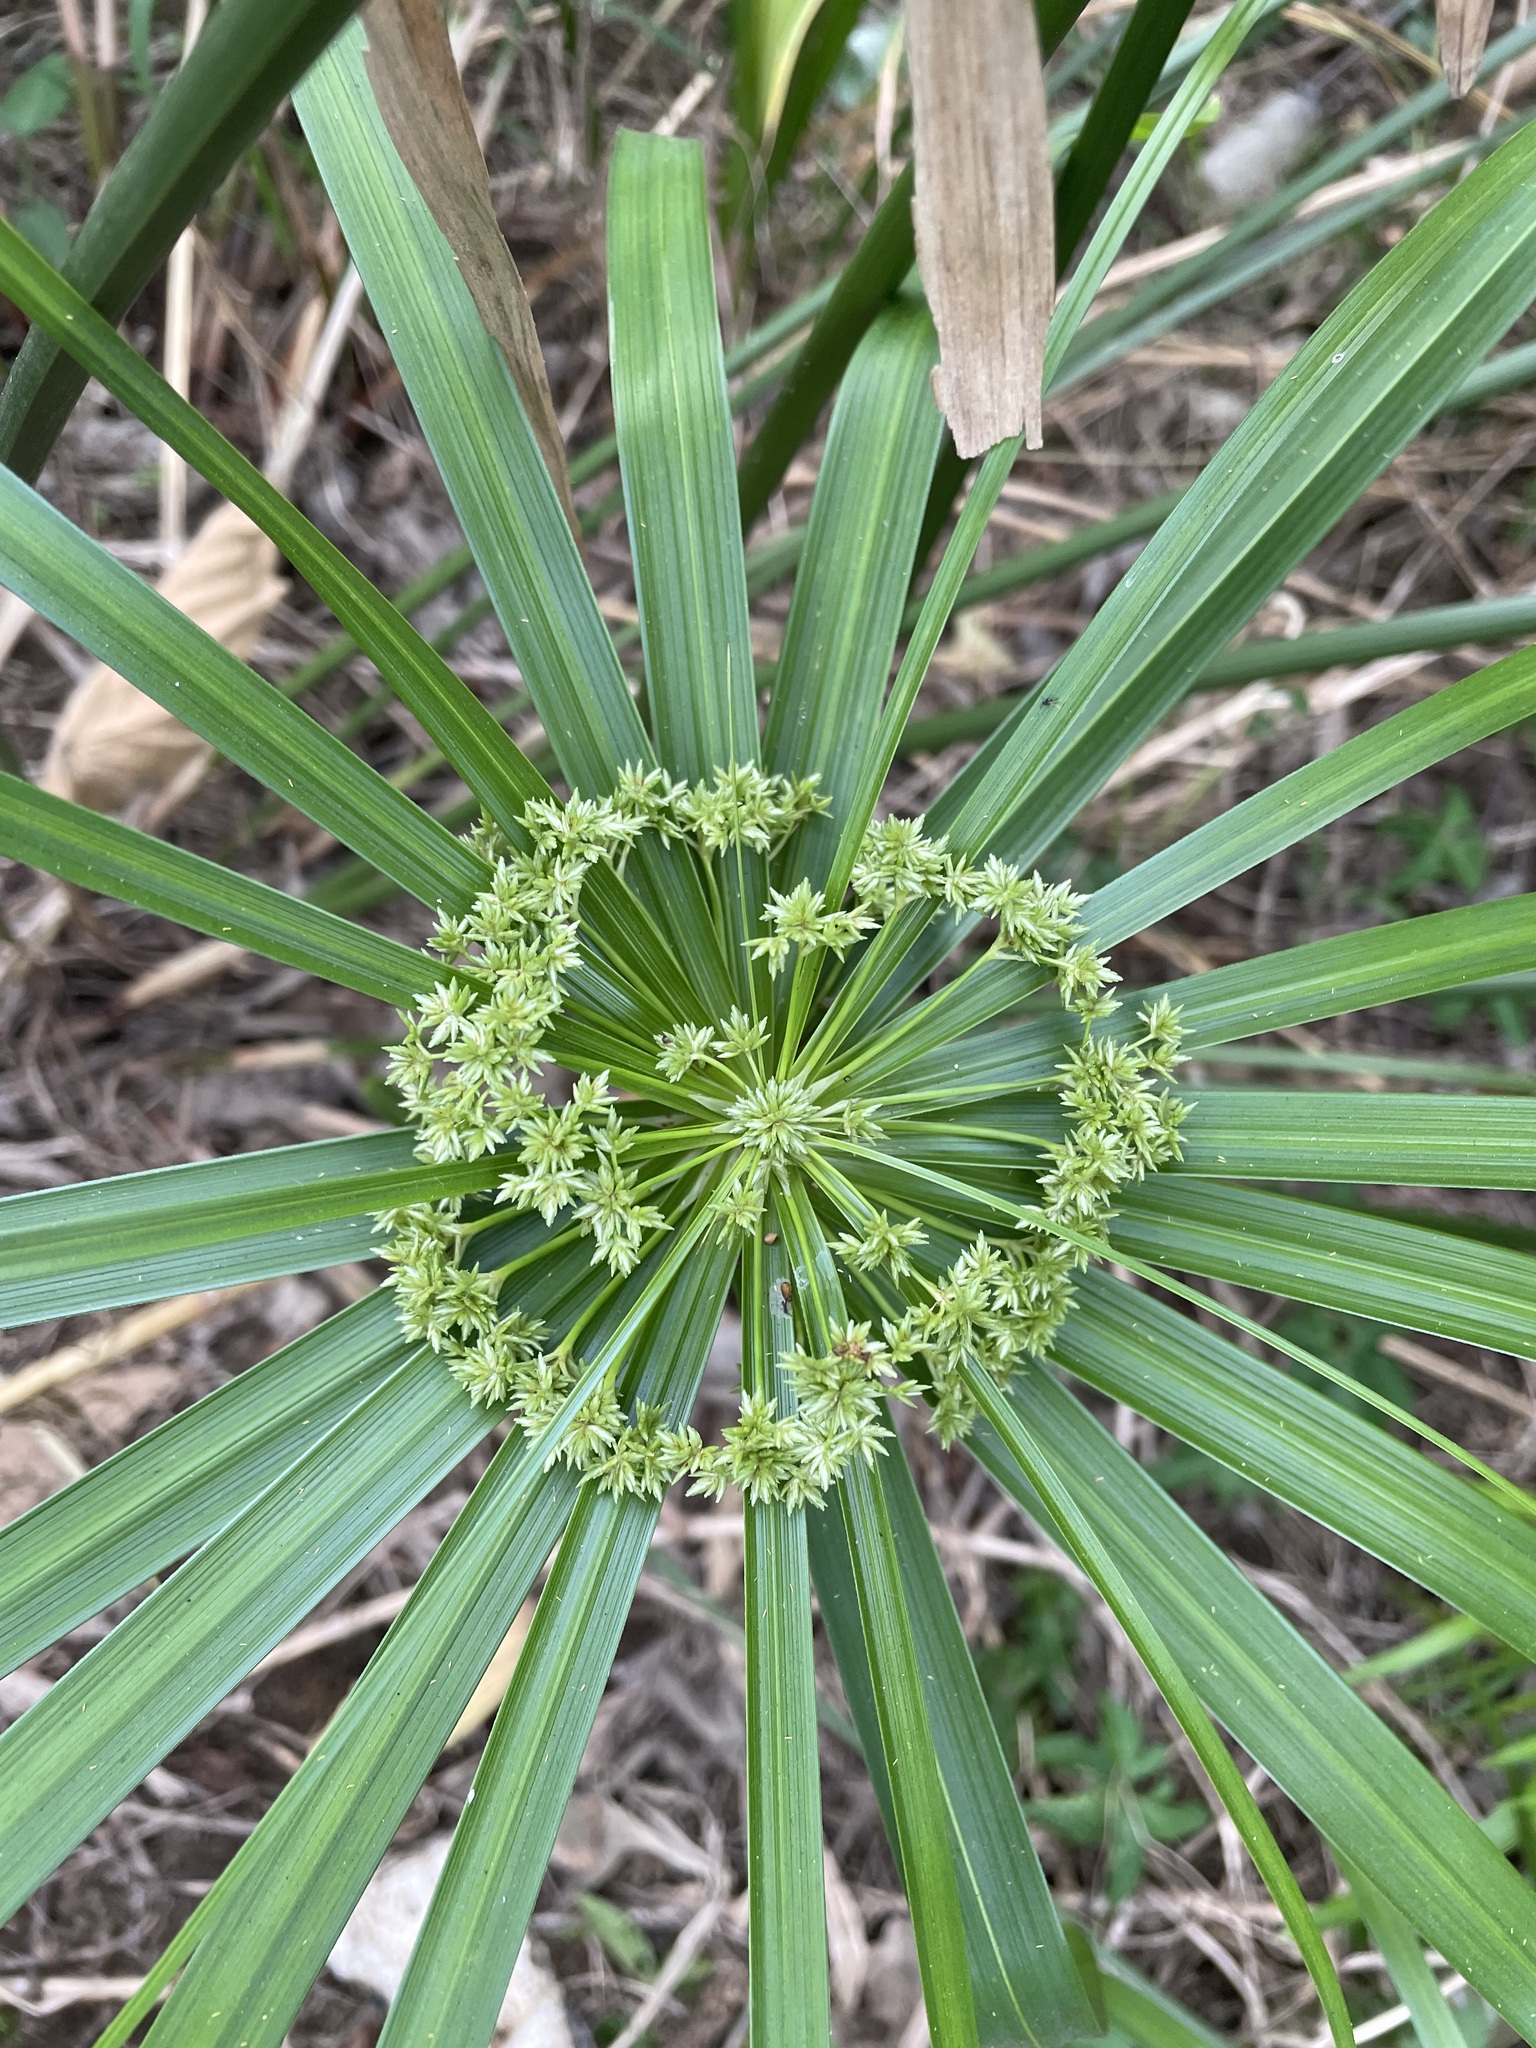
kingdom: Plantae
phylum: Tracheophyta
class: Liliopsida
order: Poales
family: Cyperaceae
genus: Cyperus
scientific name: Cyperus alternifolius
